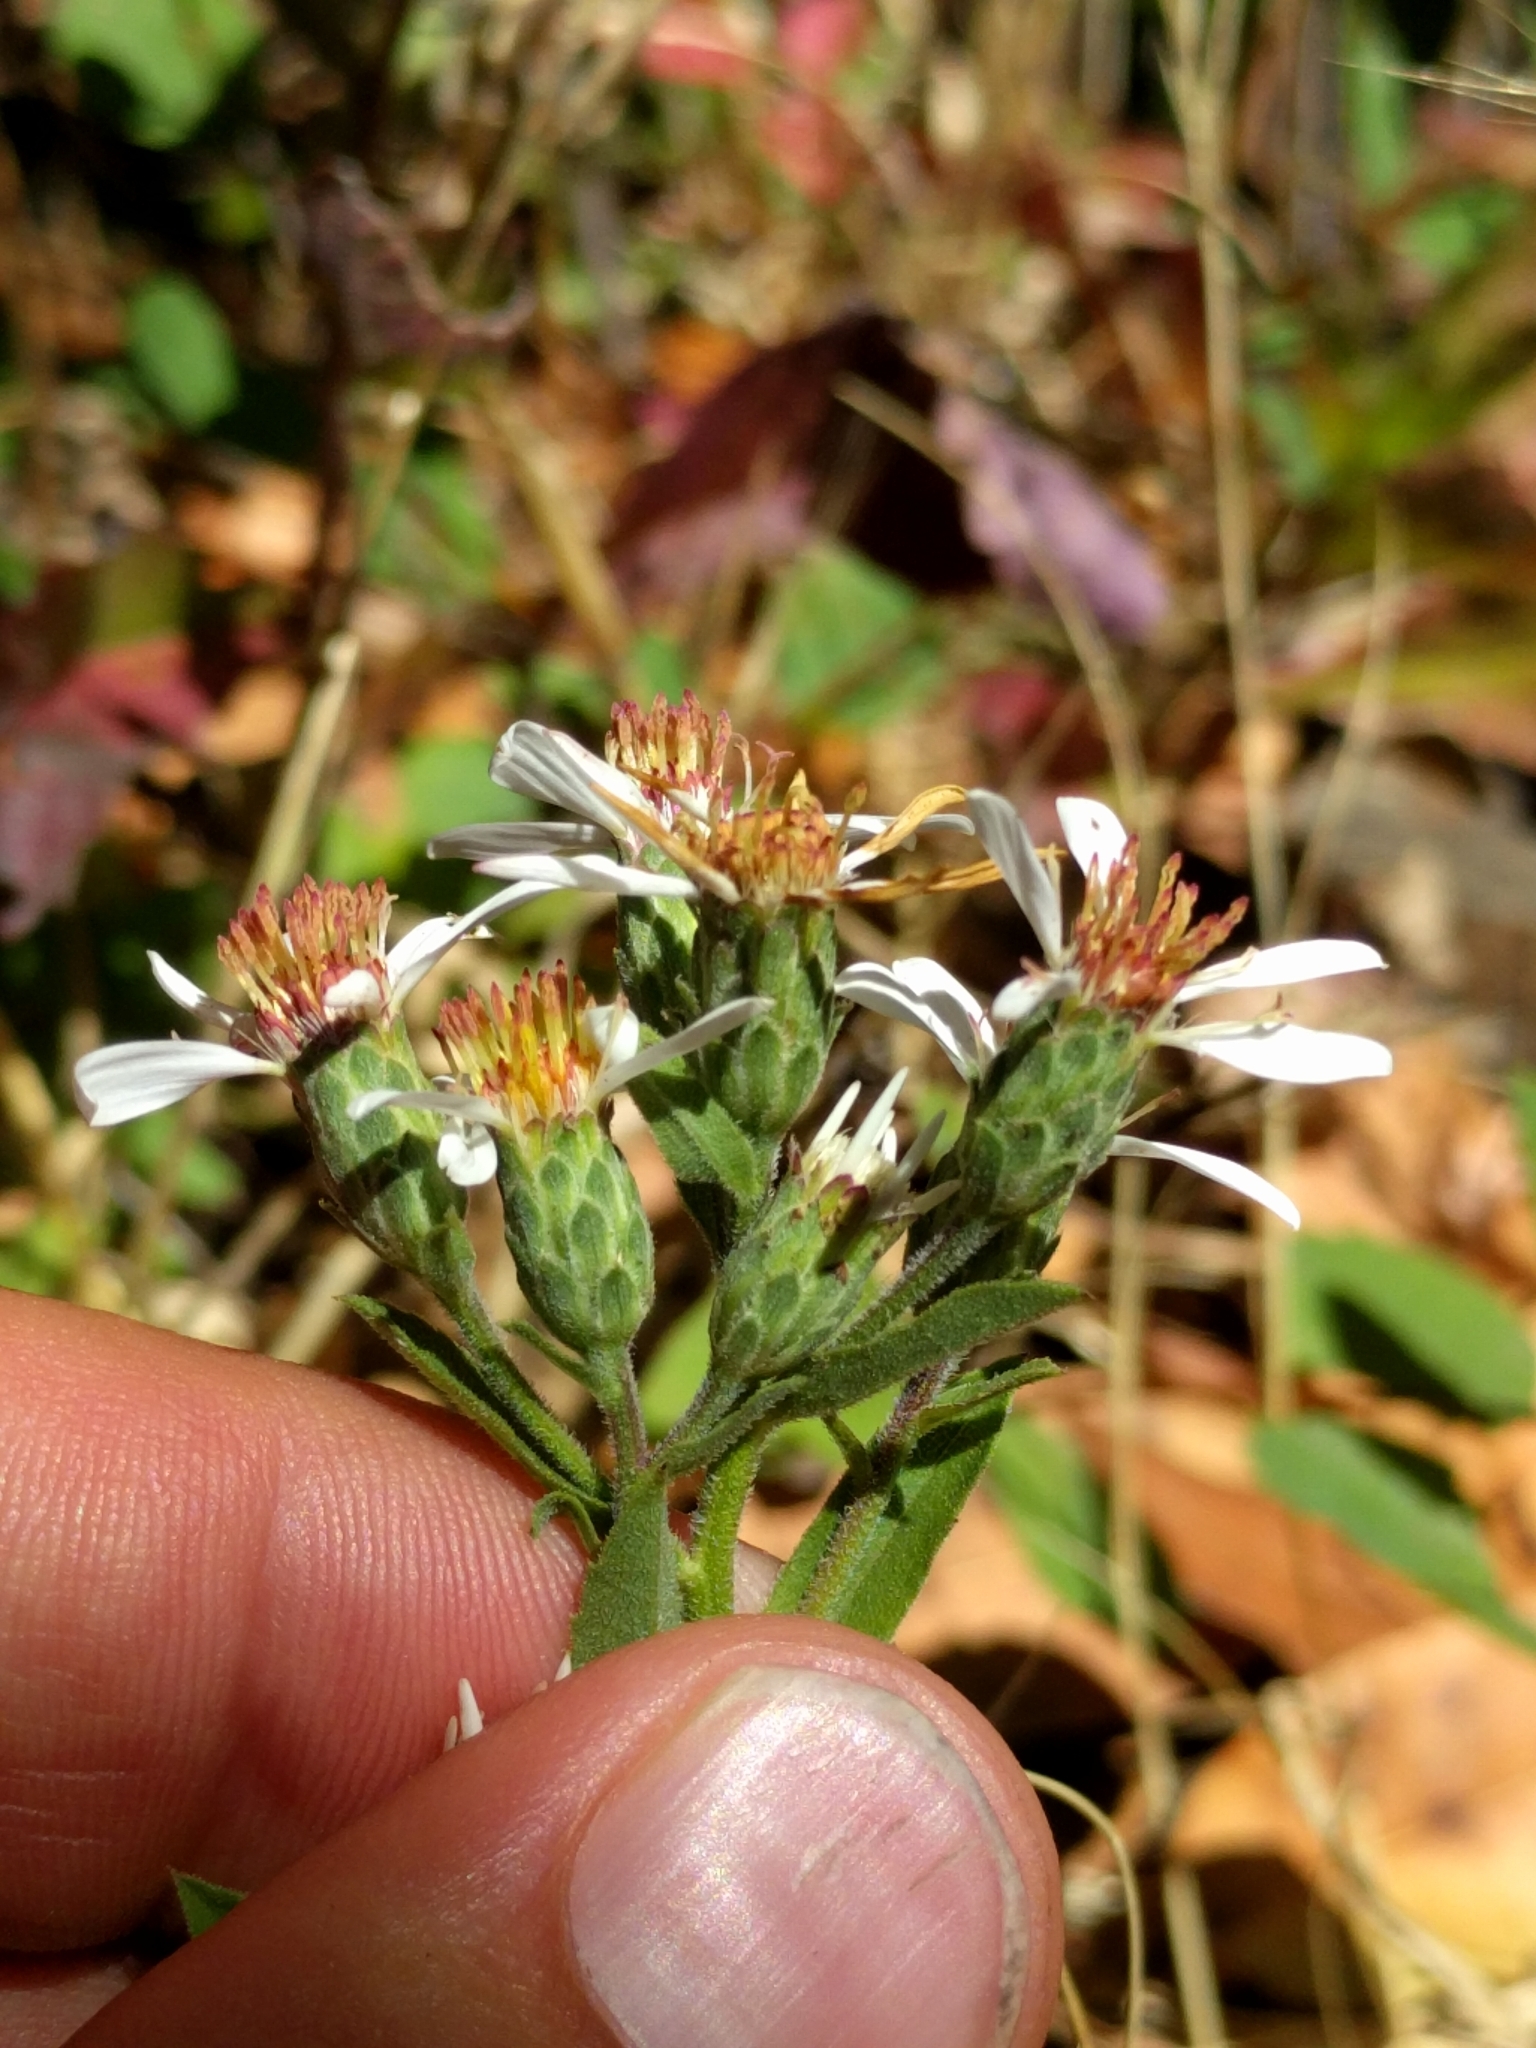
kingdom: Plantae
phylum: Tracheophyta
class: Magnoliopsida
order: Asterales
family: Asteraceae
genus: Eurybia
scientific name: Eurybia radulina
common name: Rough-leaved aster
